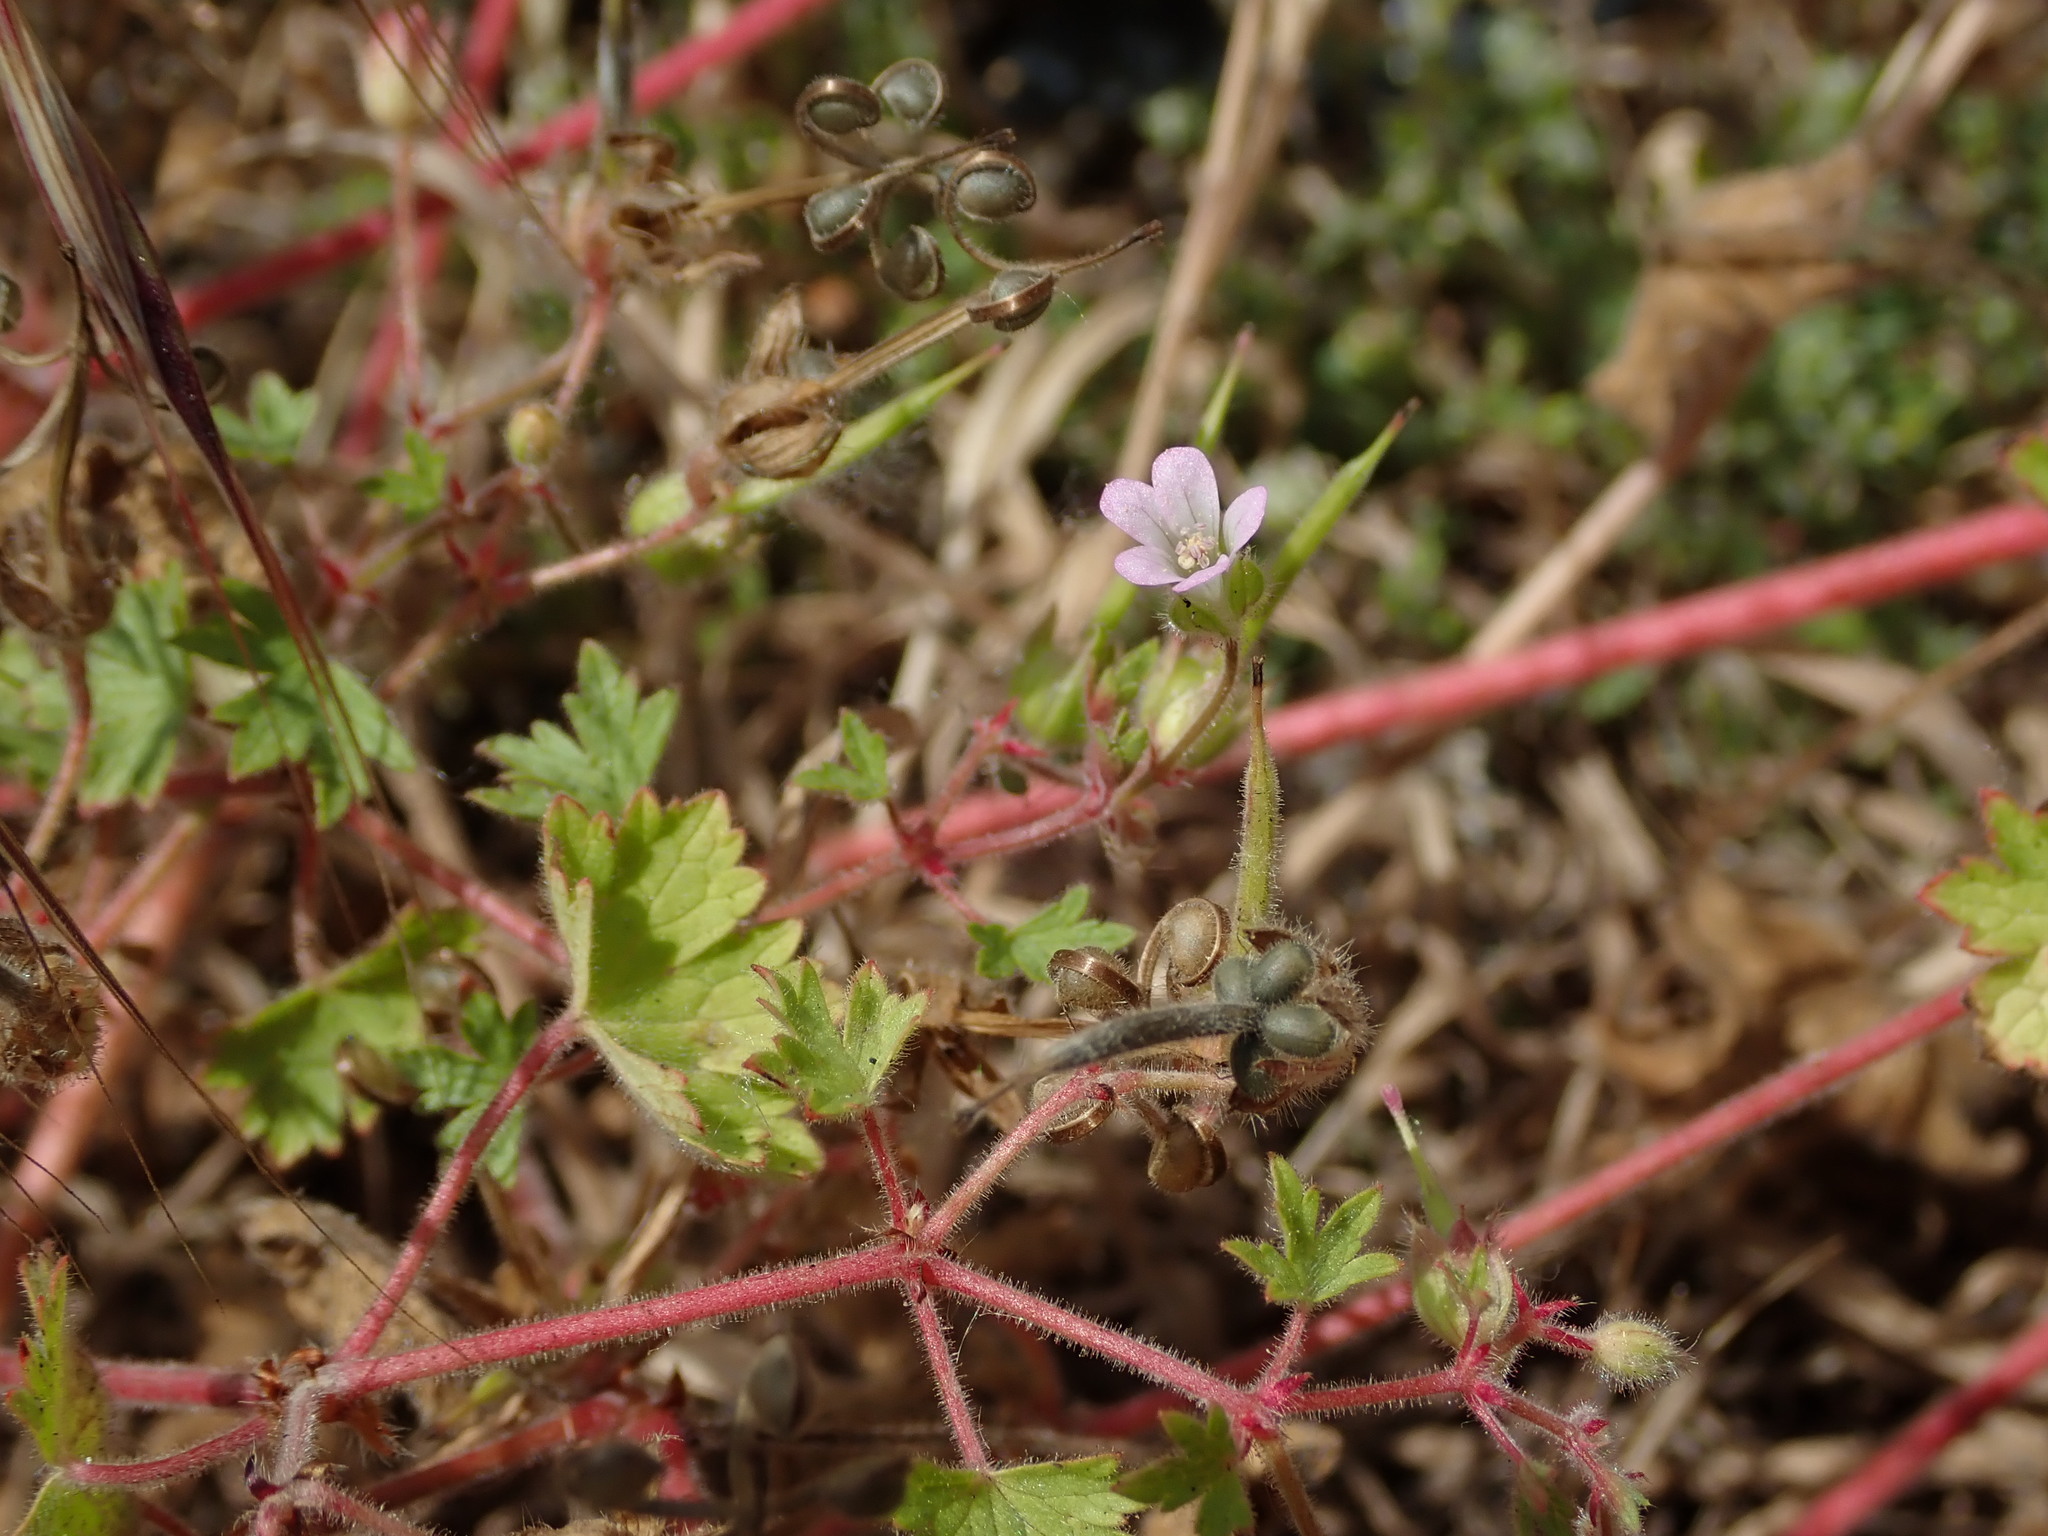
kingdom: Plantae
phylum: Tracheophyta
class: Magnoliopsida
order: Geraniales
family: Geraniaceae
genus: Geranium
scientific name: Geranium rotundifolium
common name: Round-leaved crane's-bill
